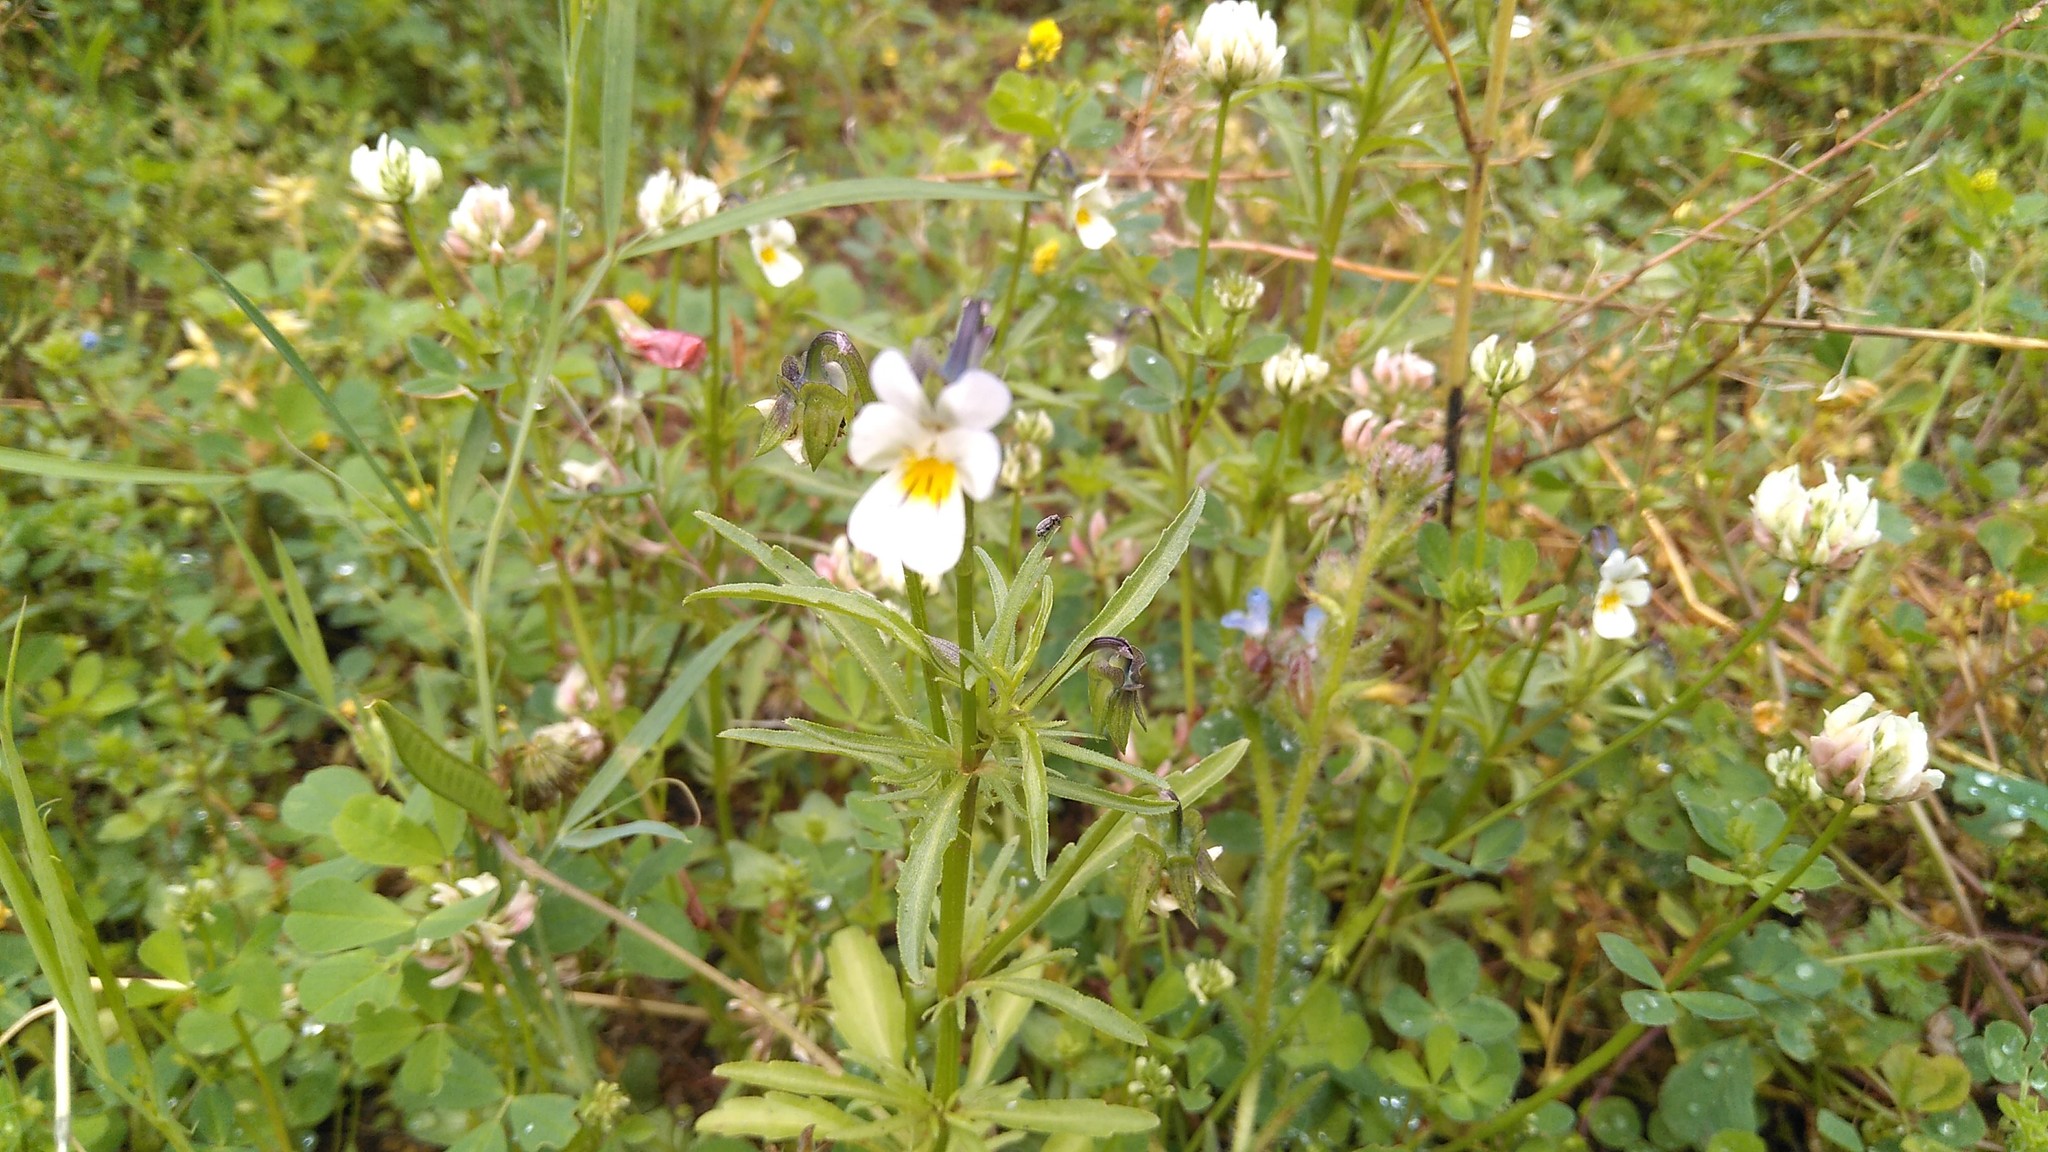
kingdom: Plantae
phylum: Tracheophyta
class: Magnoliopsida
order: Malpighiales
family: Violaceae
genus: Viola
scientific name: Viola arvensis
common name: Field pansy
